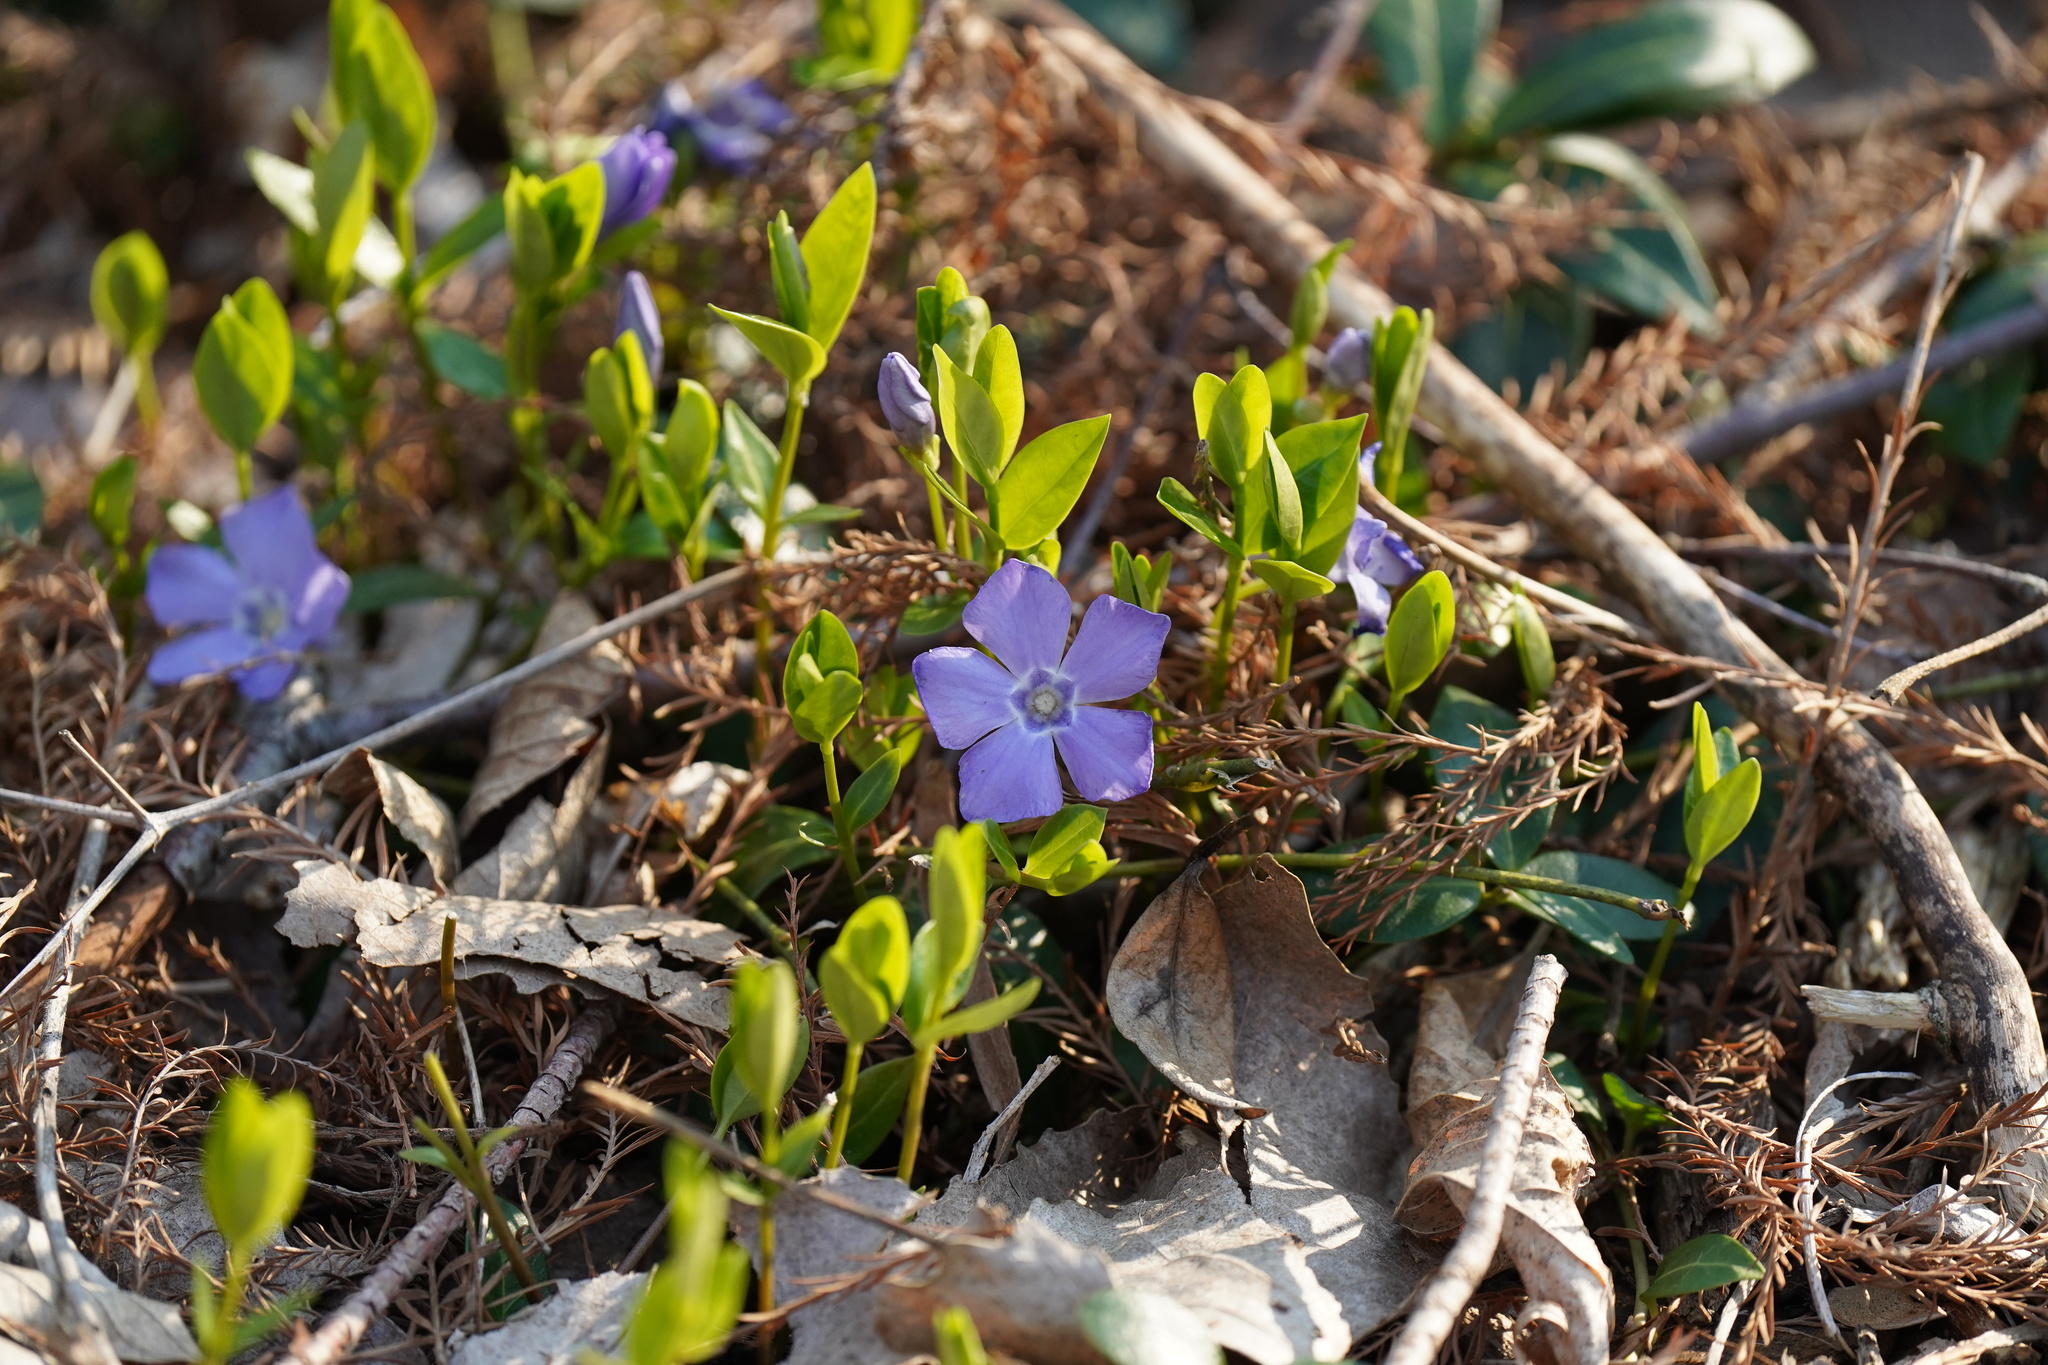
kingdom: Plantae
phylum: Tracheophyta
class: Magnoliopsida
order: Gentianales
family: Apocynaceae
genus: Vinca
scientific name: Vinca minor
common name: Lesser periwinkle
